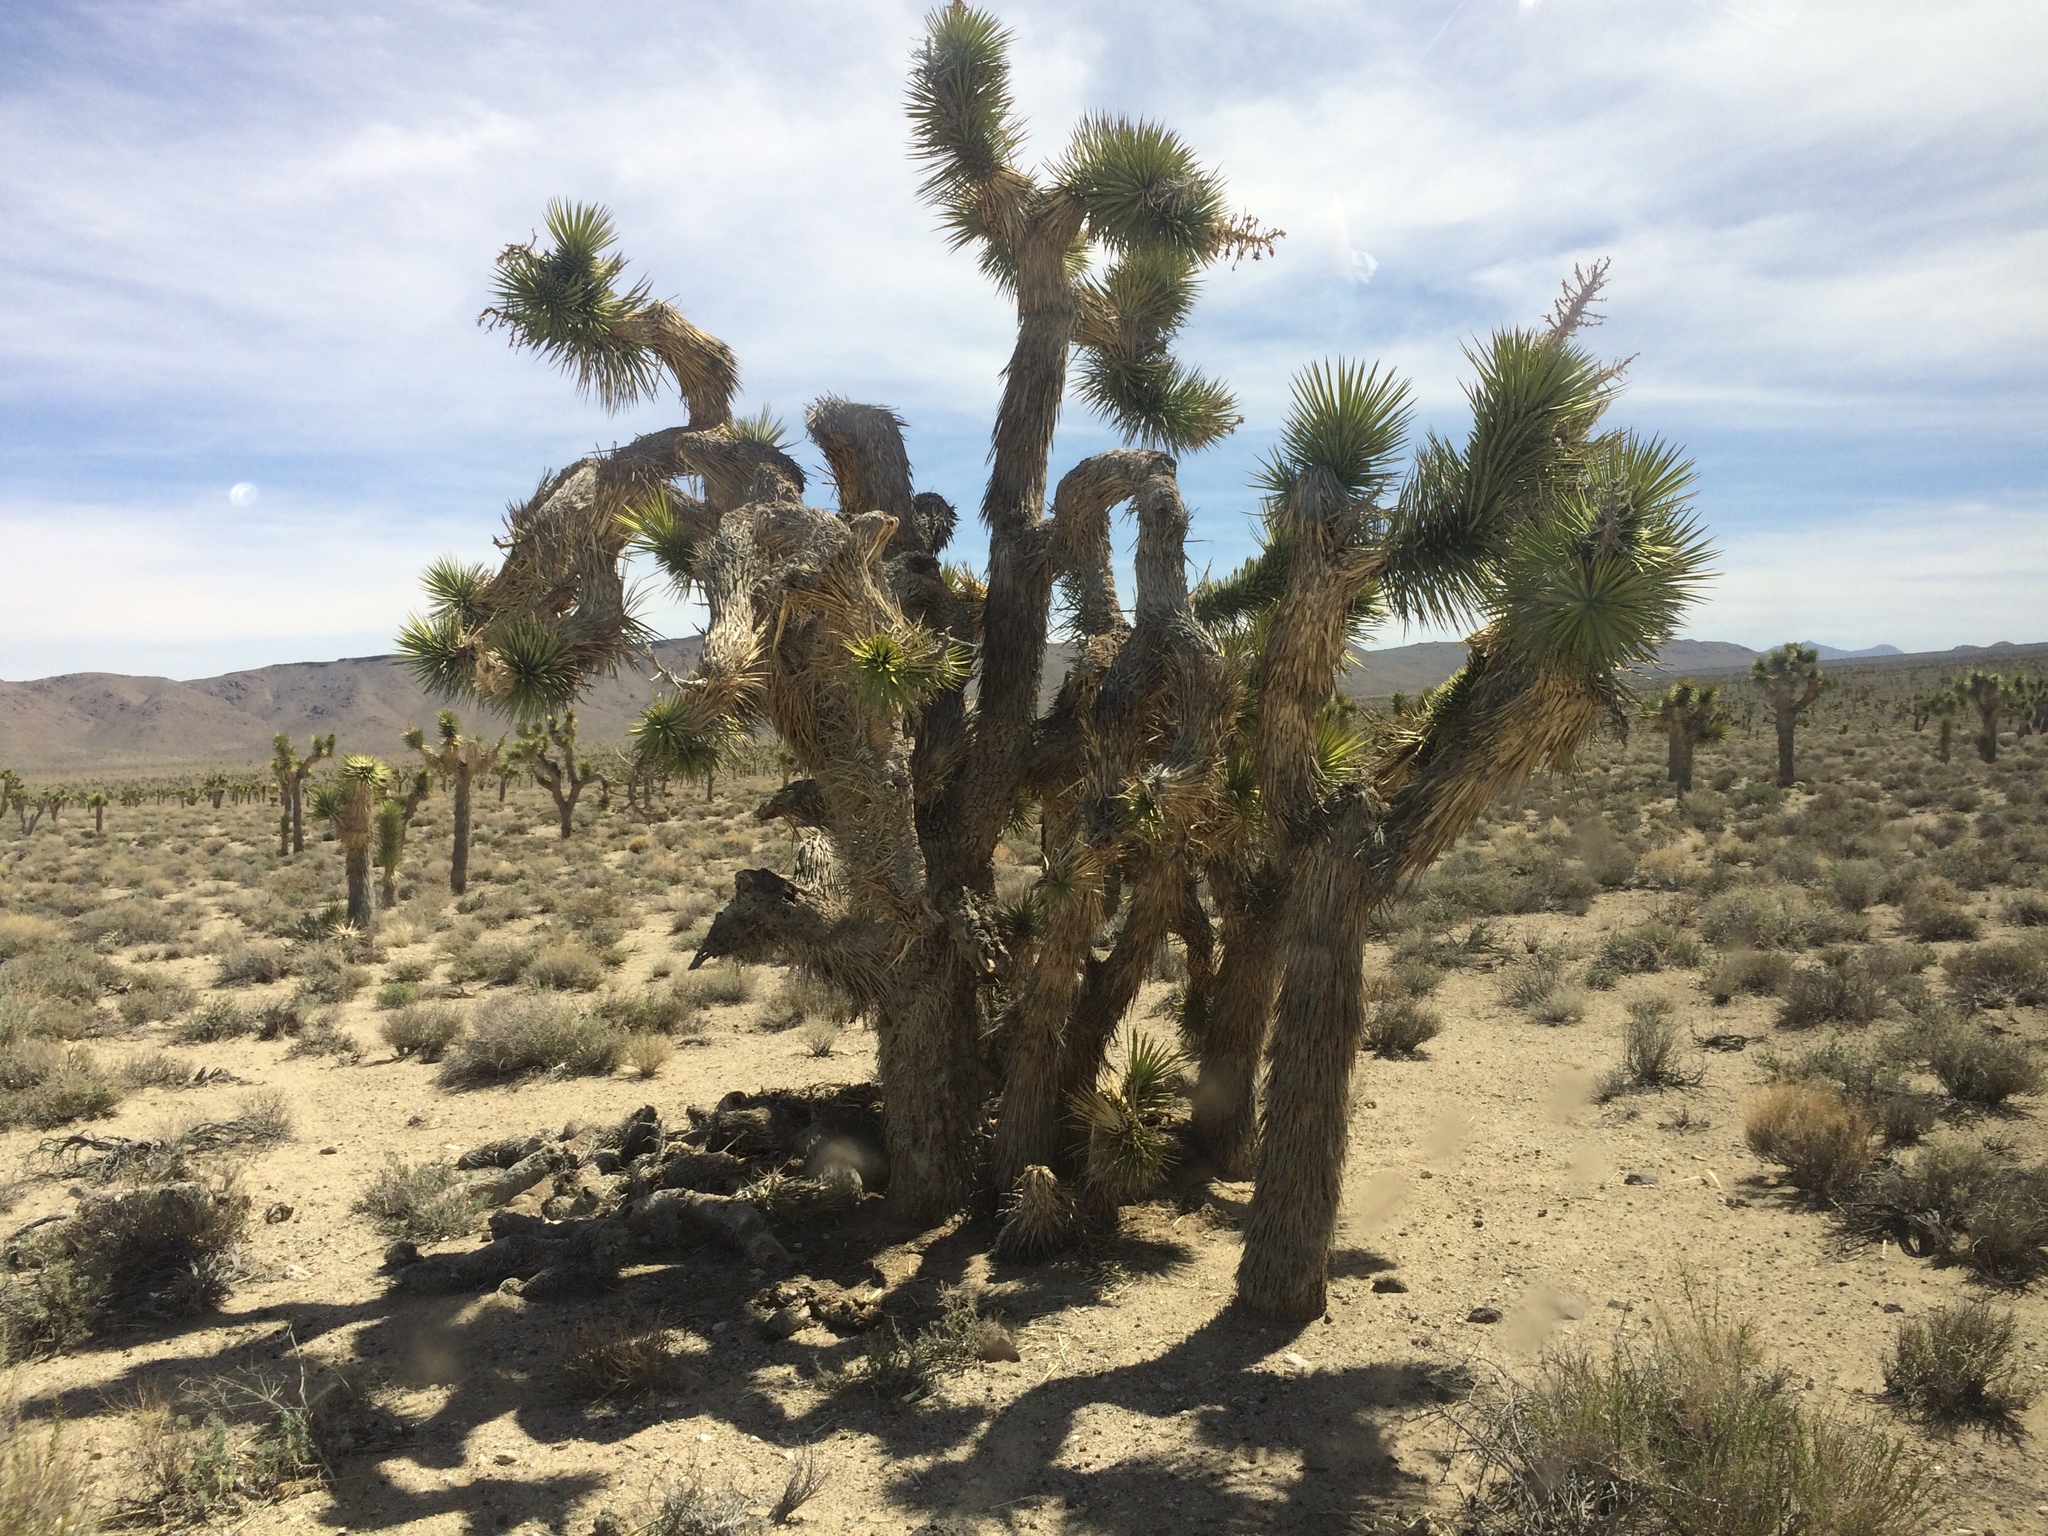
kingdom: Plantae
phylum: Tracheophyta
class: Liliopsida
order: Asparagales
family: Asparagaceae
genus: Yucca
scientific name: Yucca brevifolia
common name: Joshua tree
